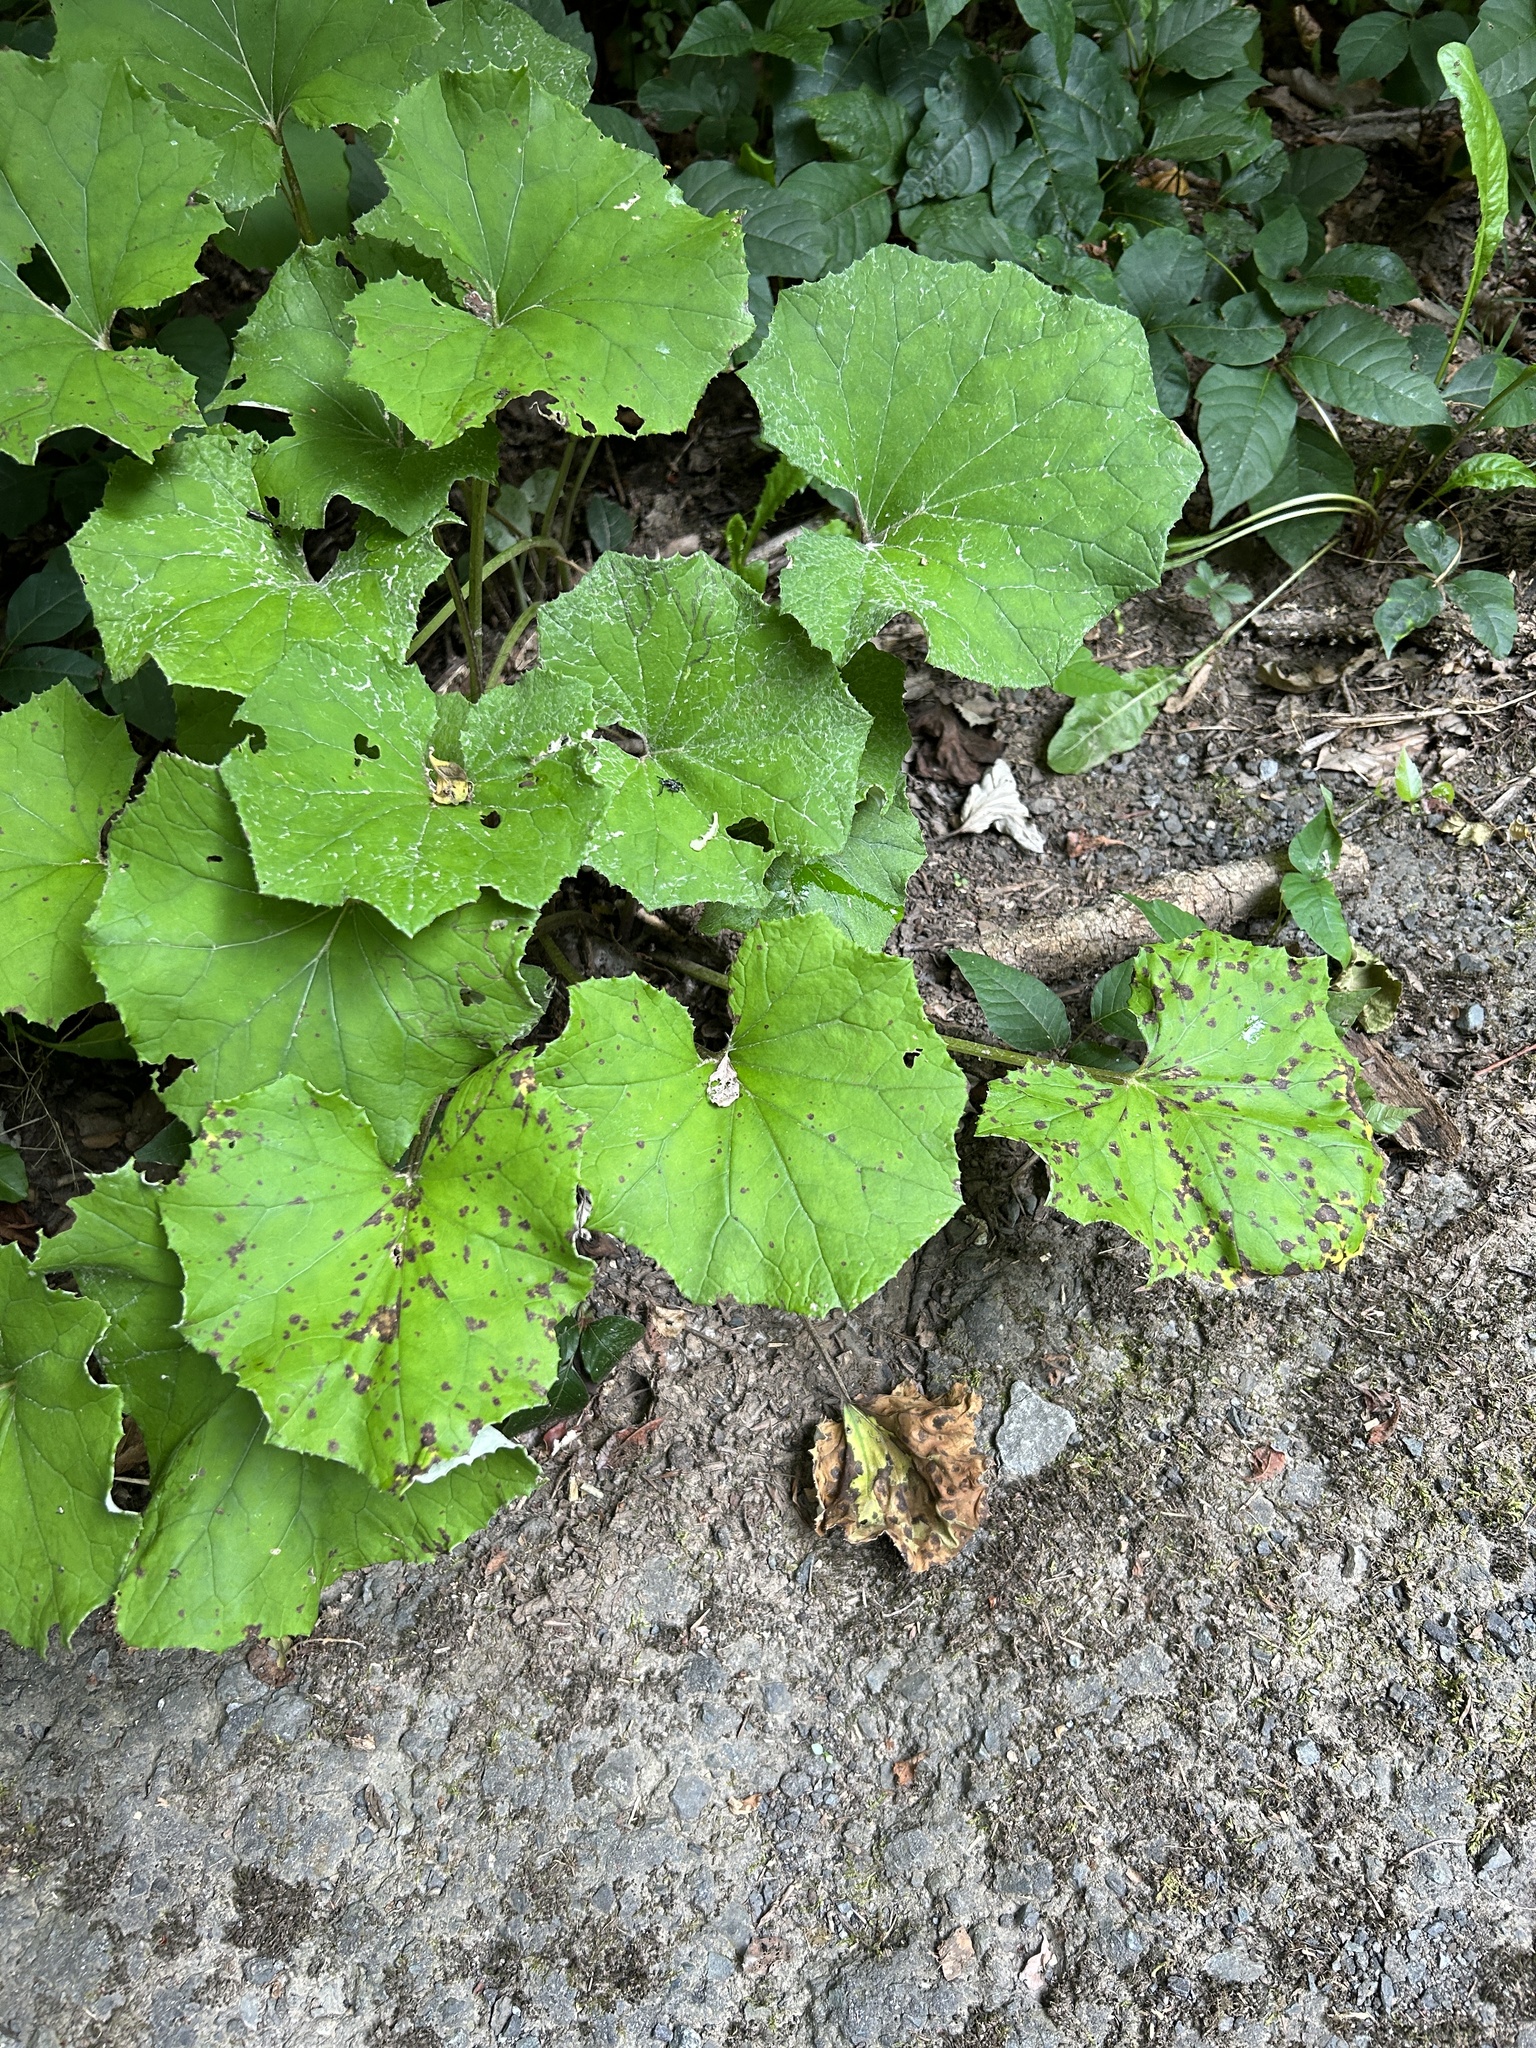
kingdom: Plantae
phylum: Tracheophyta
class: Magnoliopsida
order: Asterales
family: Asteraceae
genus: Tussilago
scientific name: Tussilago farfara
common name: Coltsfoot
